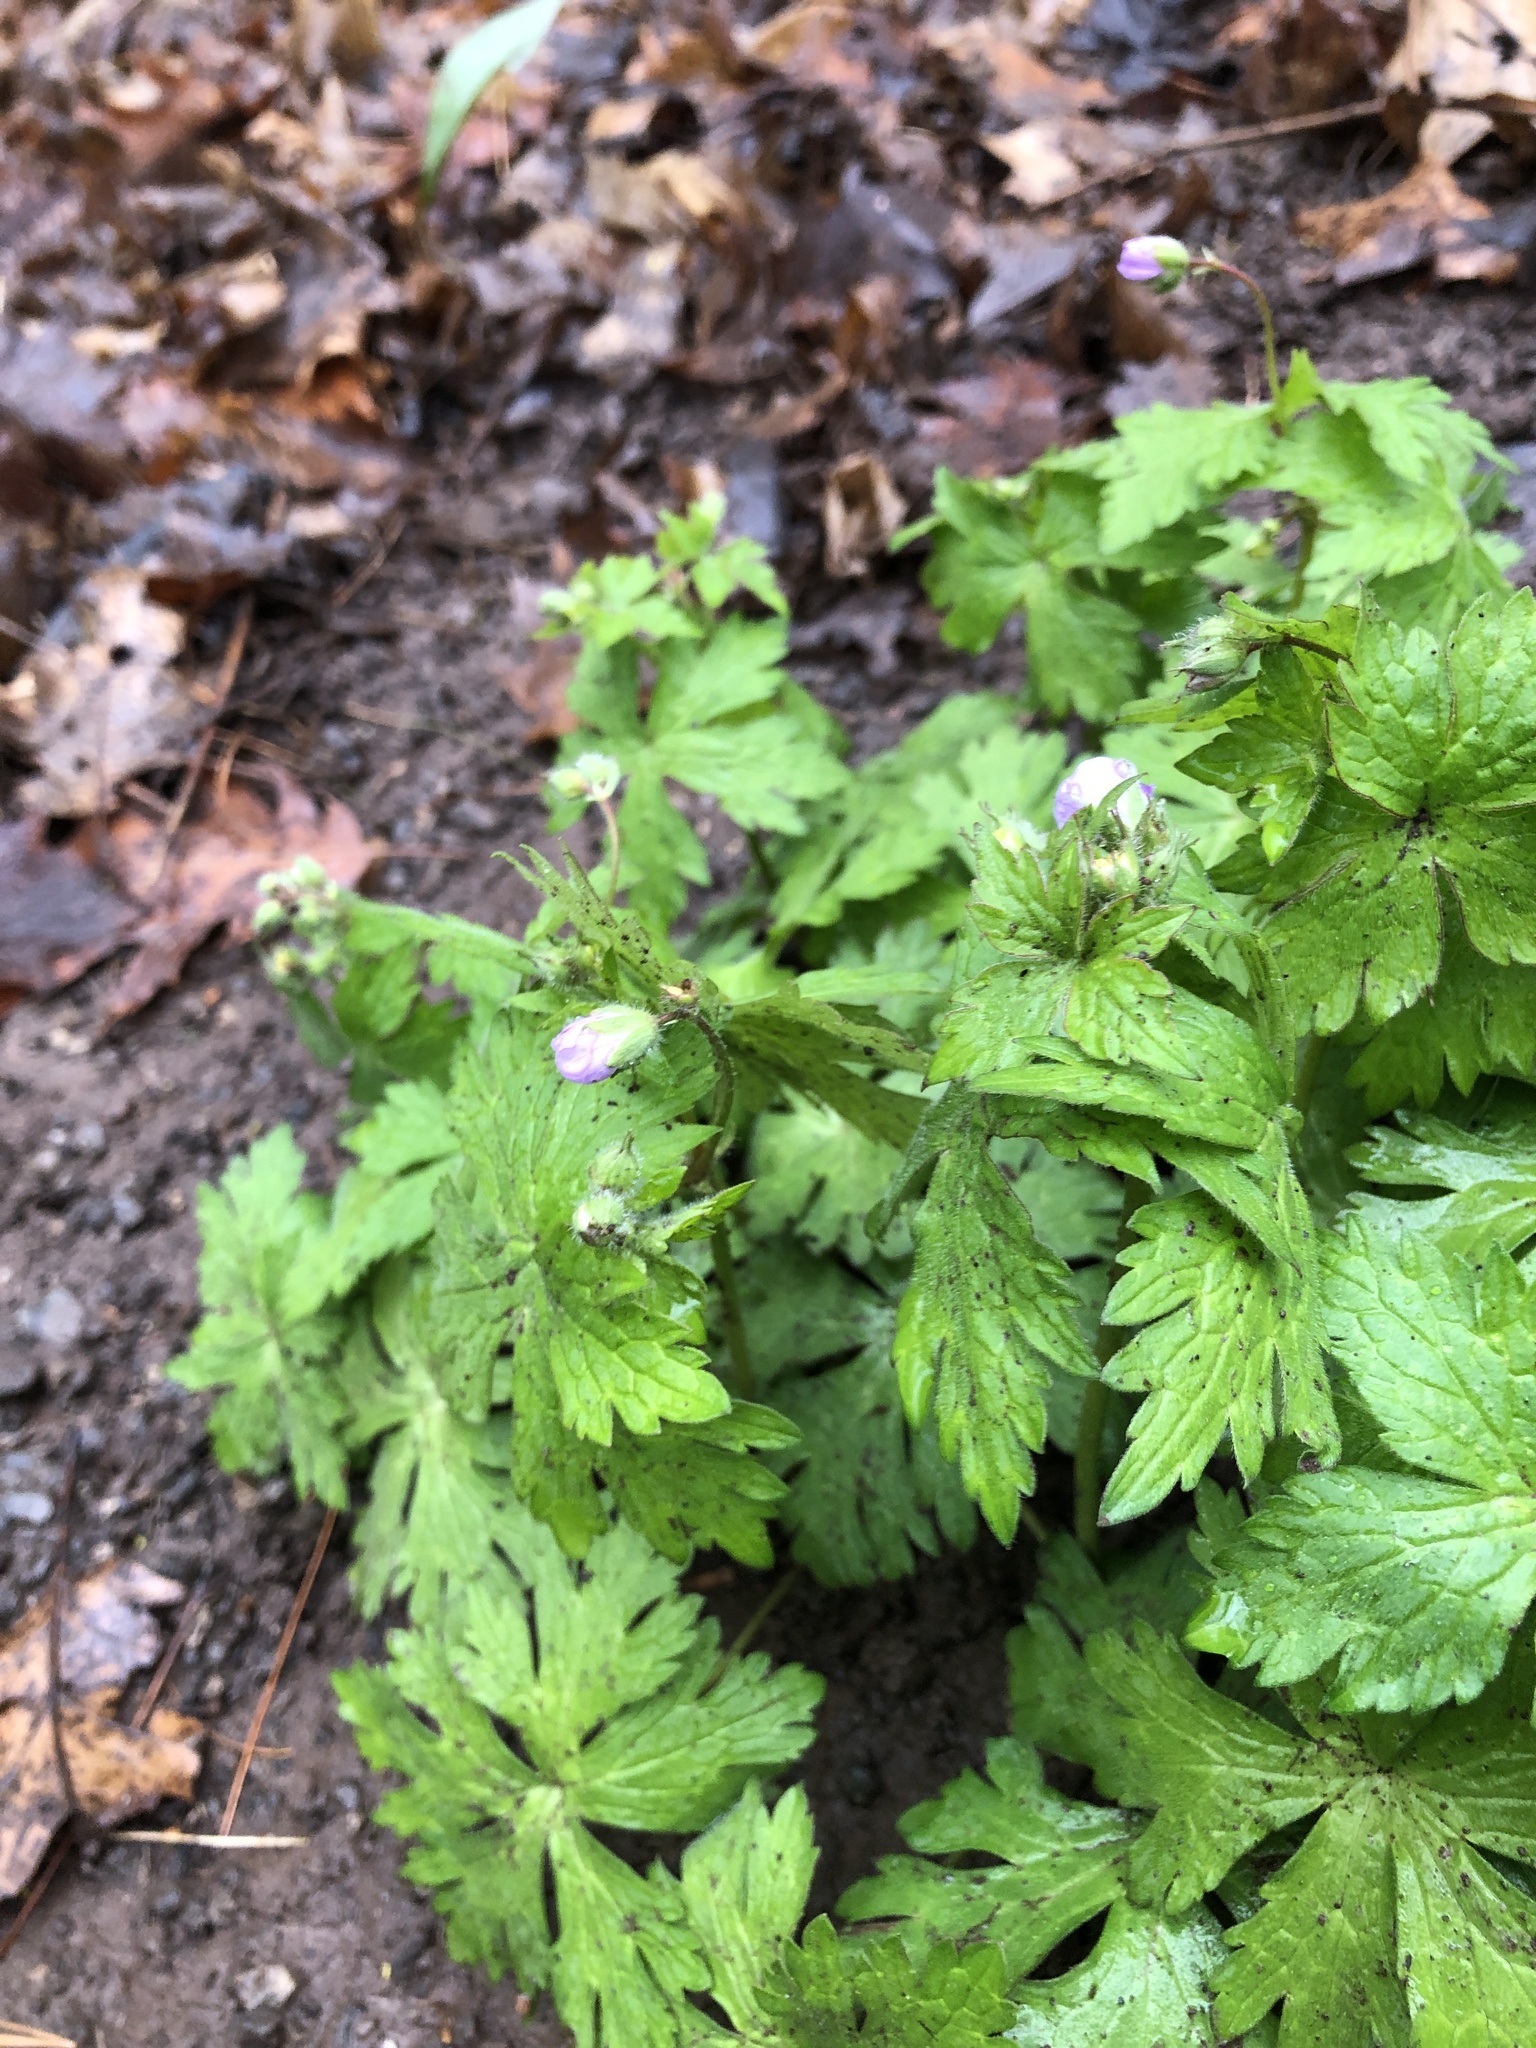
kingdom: Plantae
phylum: Tracheophyta
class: Magnoliopsida
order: Geraniales
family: Geraniaceae
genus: Geranium
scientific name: Geranium maculatum
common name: Spotted geranium
